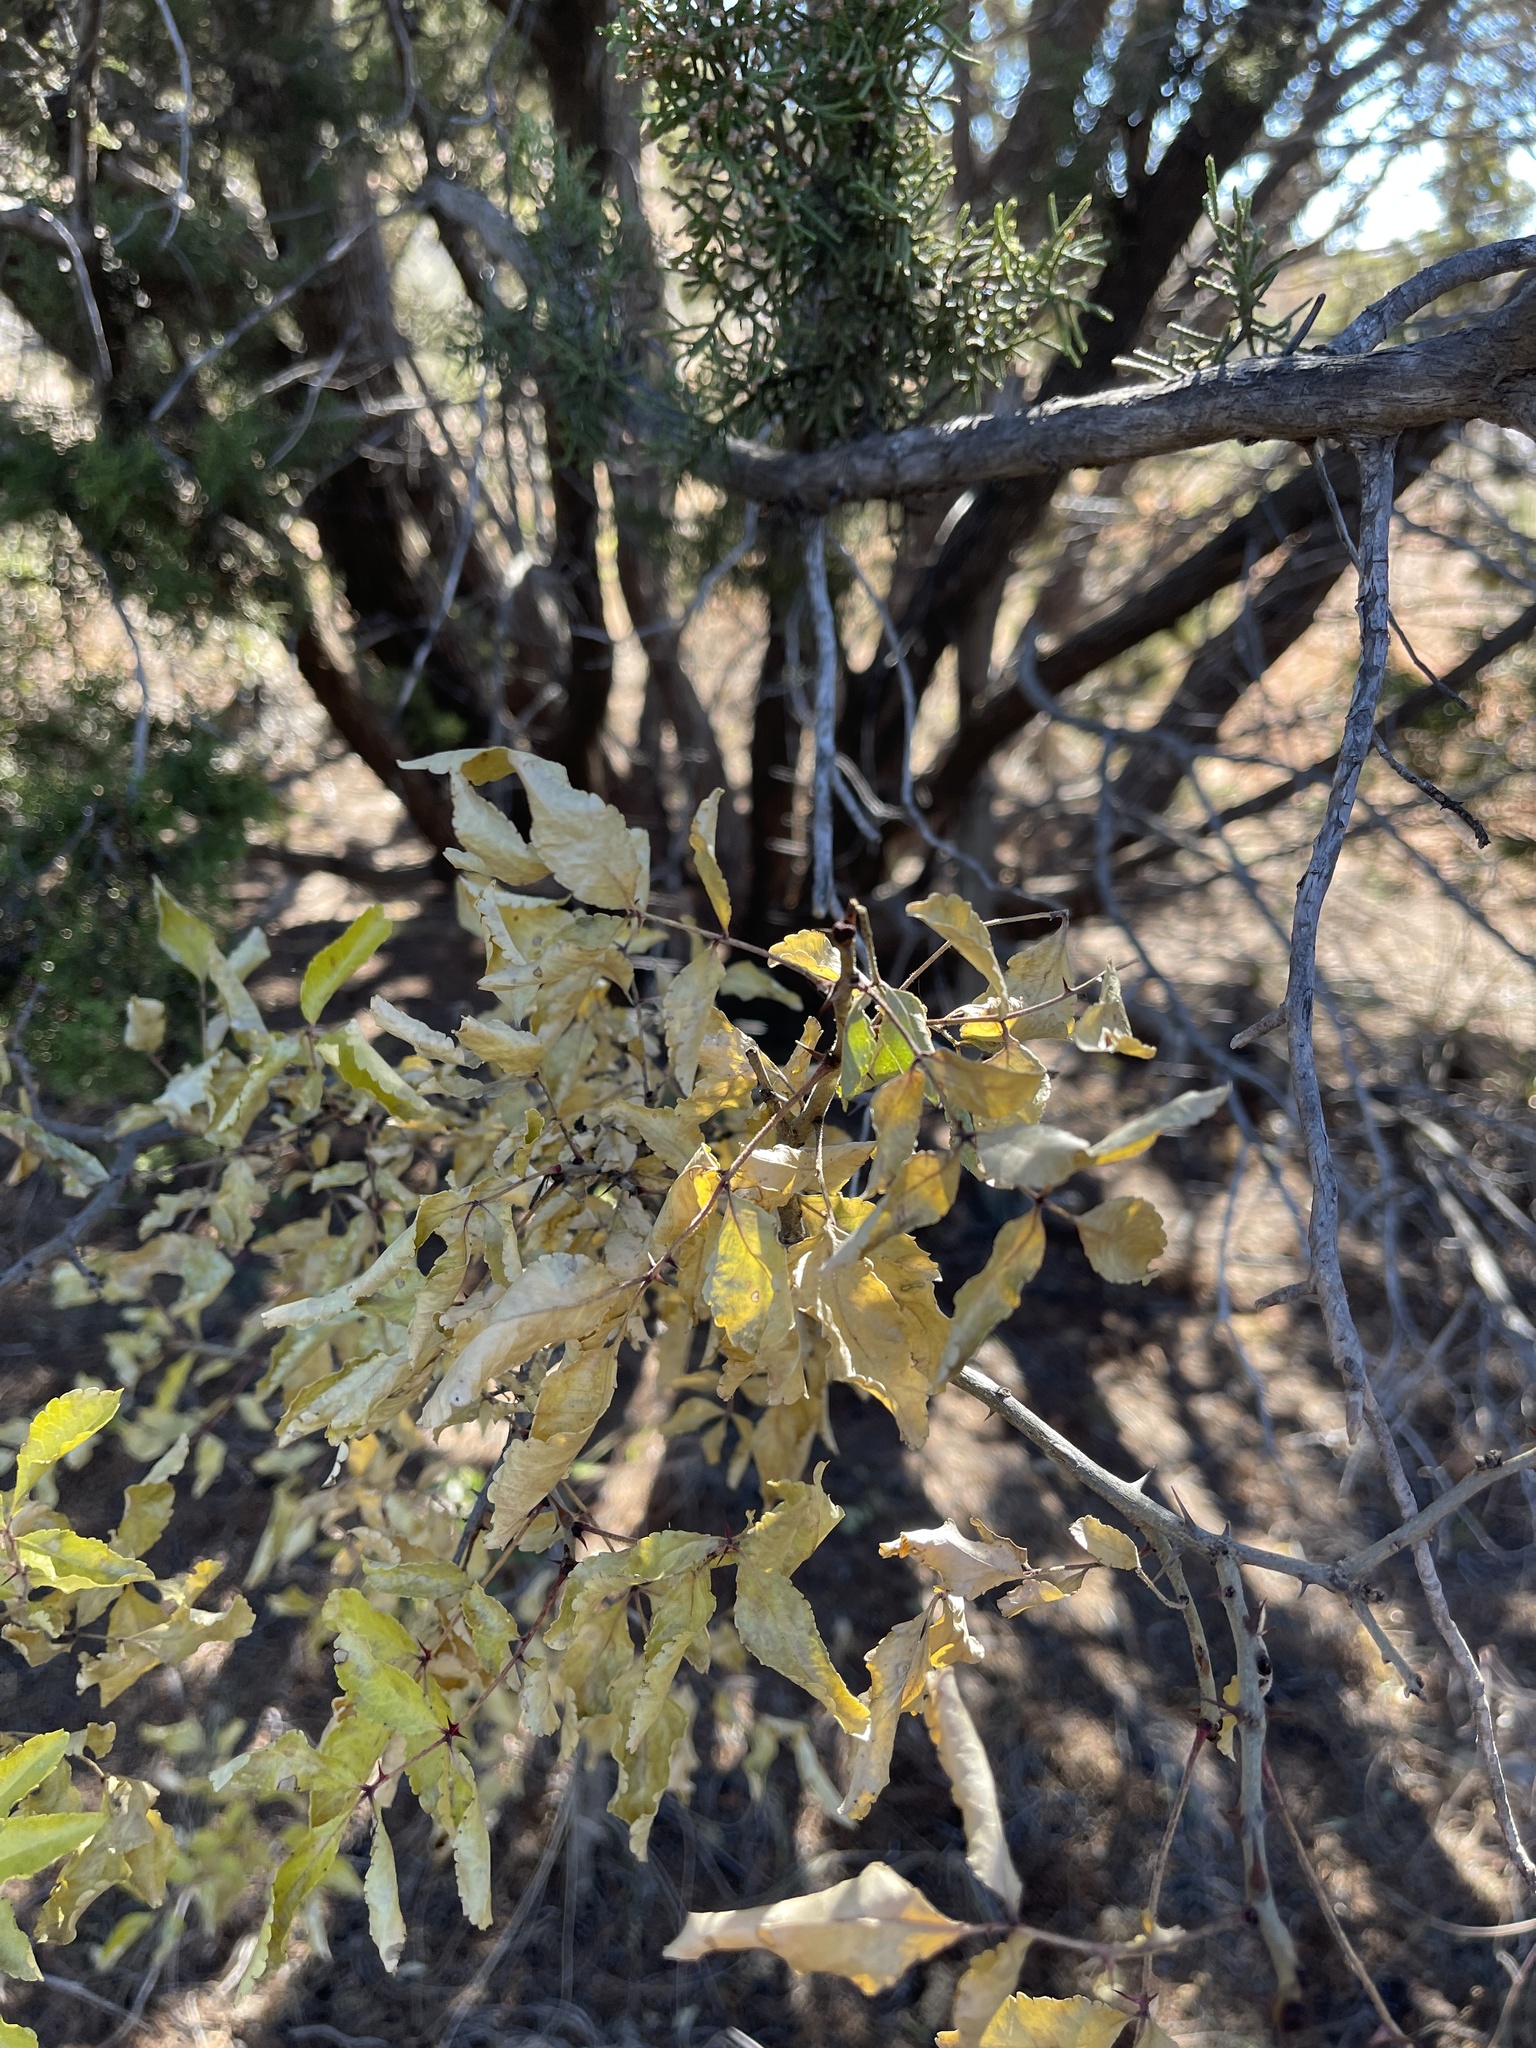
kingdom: Plantae
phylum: Tracheophyta
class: Magnoliopsida
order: Sapindales
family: Rutaceae
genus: Zanthoxylum
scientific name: Zanthoxylum clava-herculis
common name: Hercules'-club
